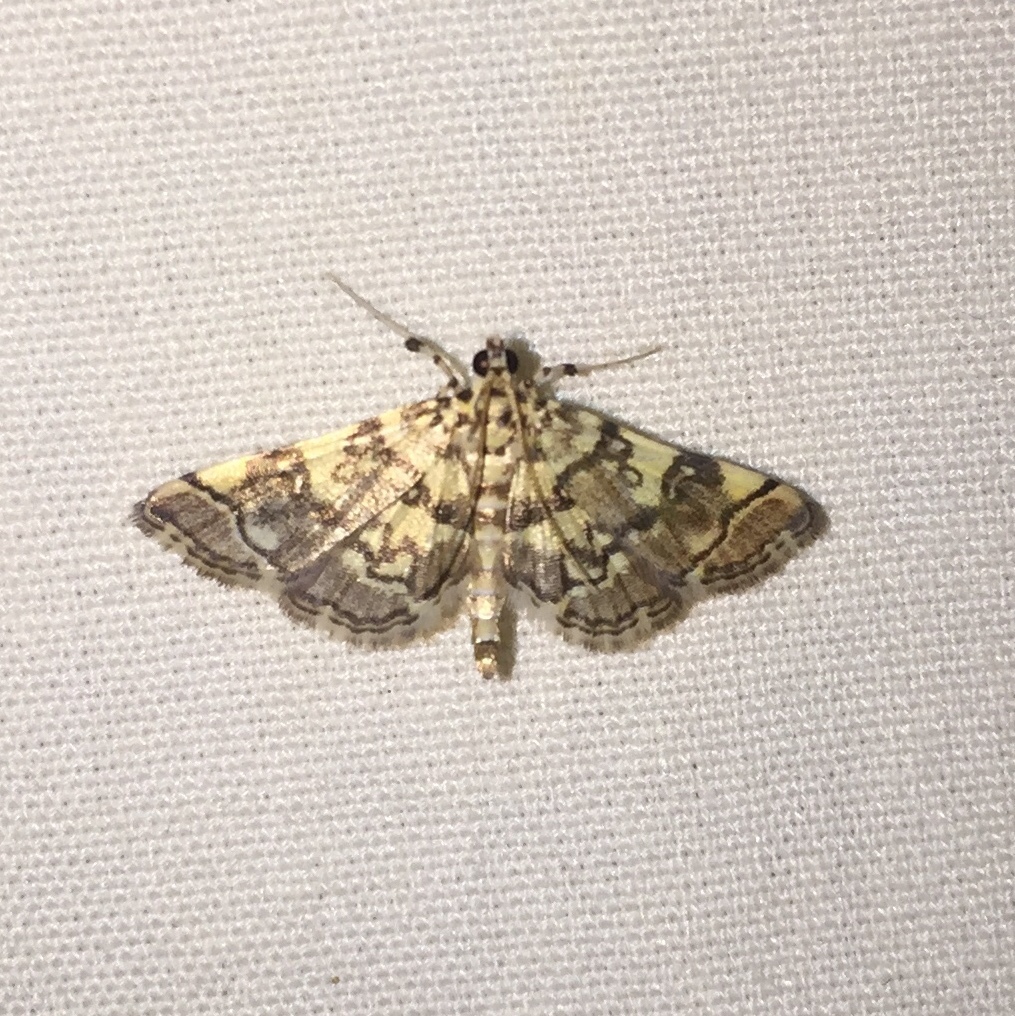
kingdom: Animalia
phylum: Arthropoda
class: Insecta
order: Lepidoptera
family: Crambidae
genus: Apogeshna
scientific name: Apogeshna stenialis
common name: Checkered apogeshna moth
